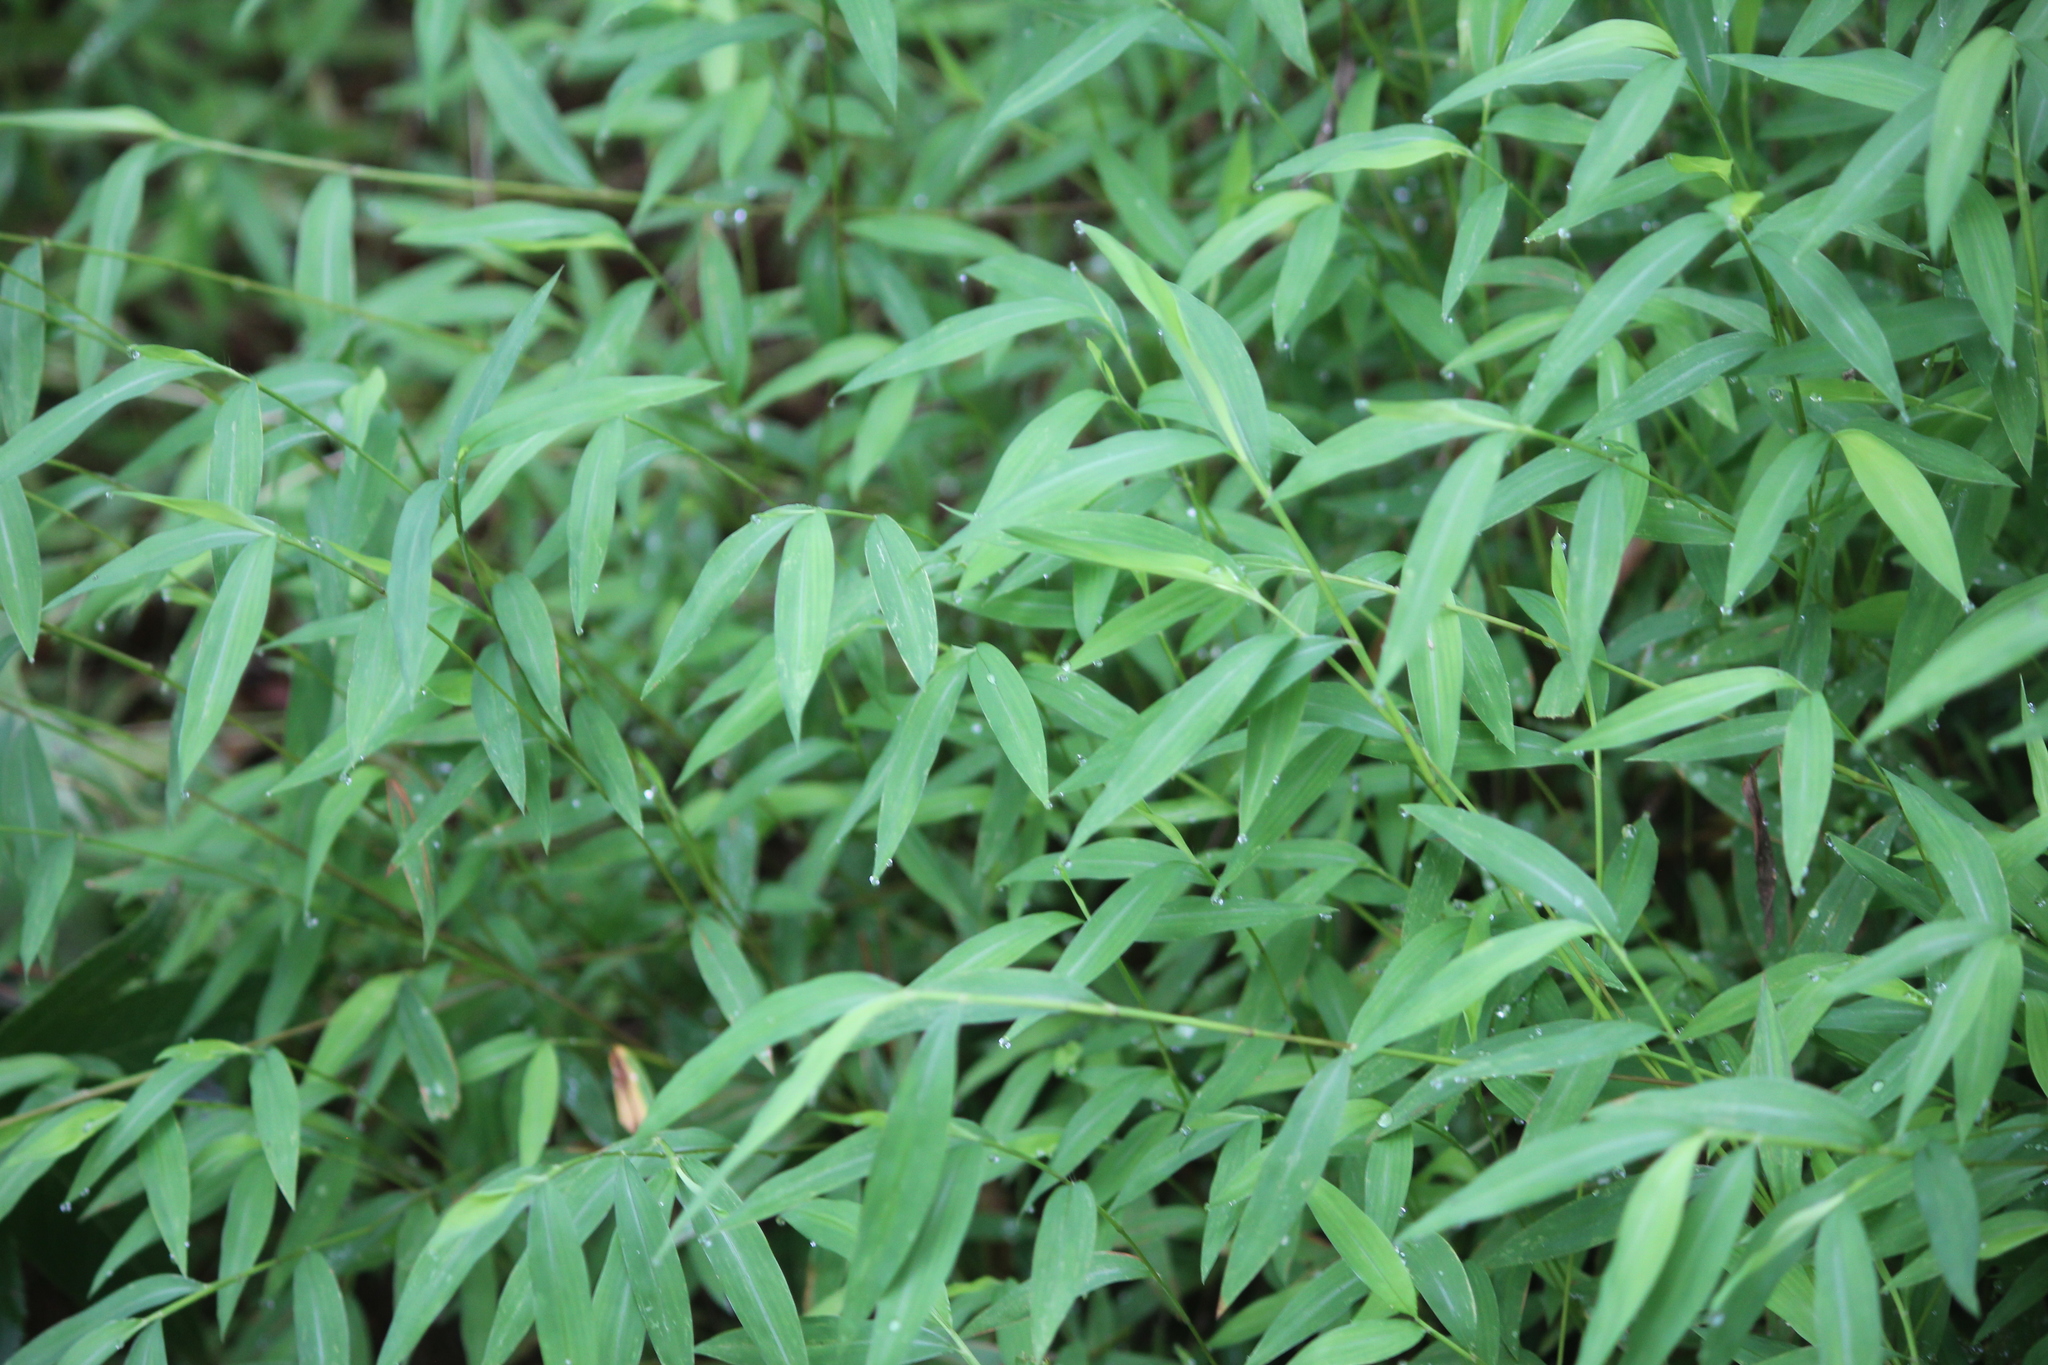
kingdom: Plantae
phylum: Tracheophyta
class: Liliopsida
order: Poales
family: Poaceae
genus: Microstegium
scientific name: Microstegium vimineum
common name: Japanese stiltgrass
